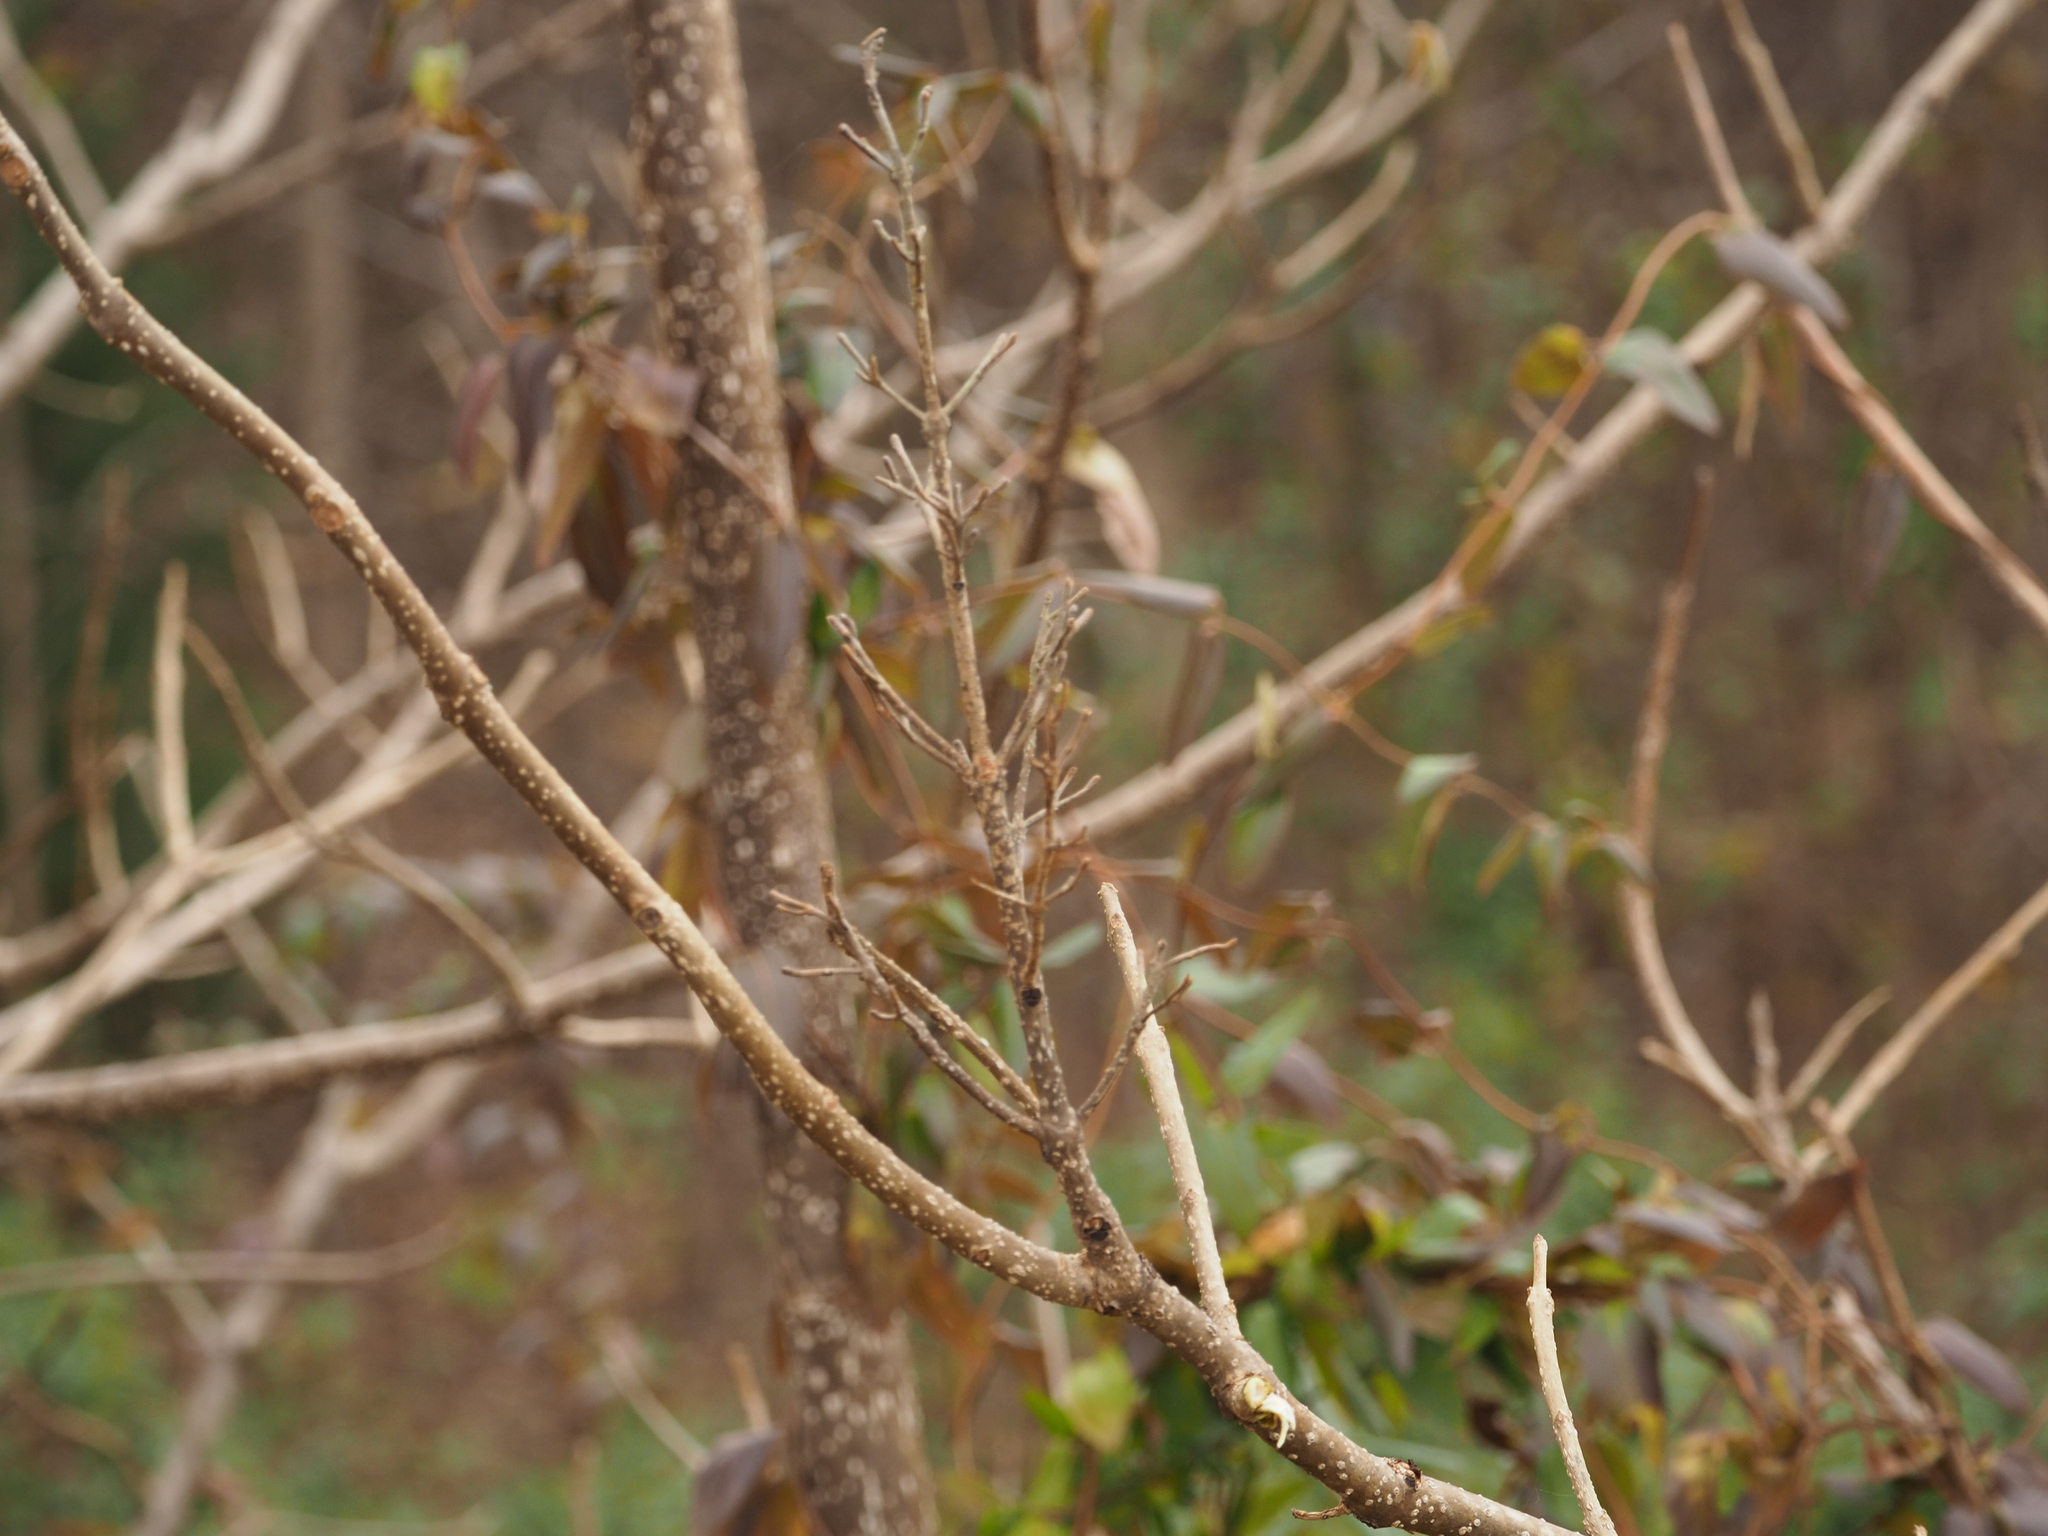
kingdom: Plantae
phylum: Tracheophyta
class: Magnoliopsida
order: Lamiales
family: Paulowniaceae
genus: Paulownia
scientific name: Paulownia tomentosa
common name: Foxglove-tree
